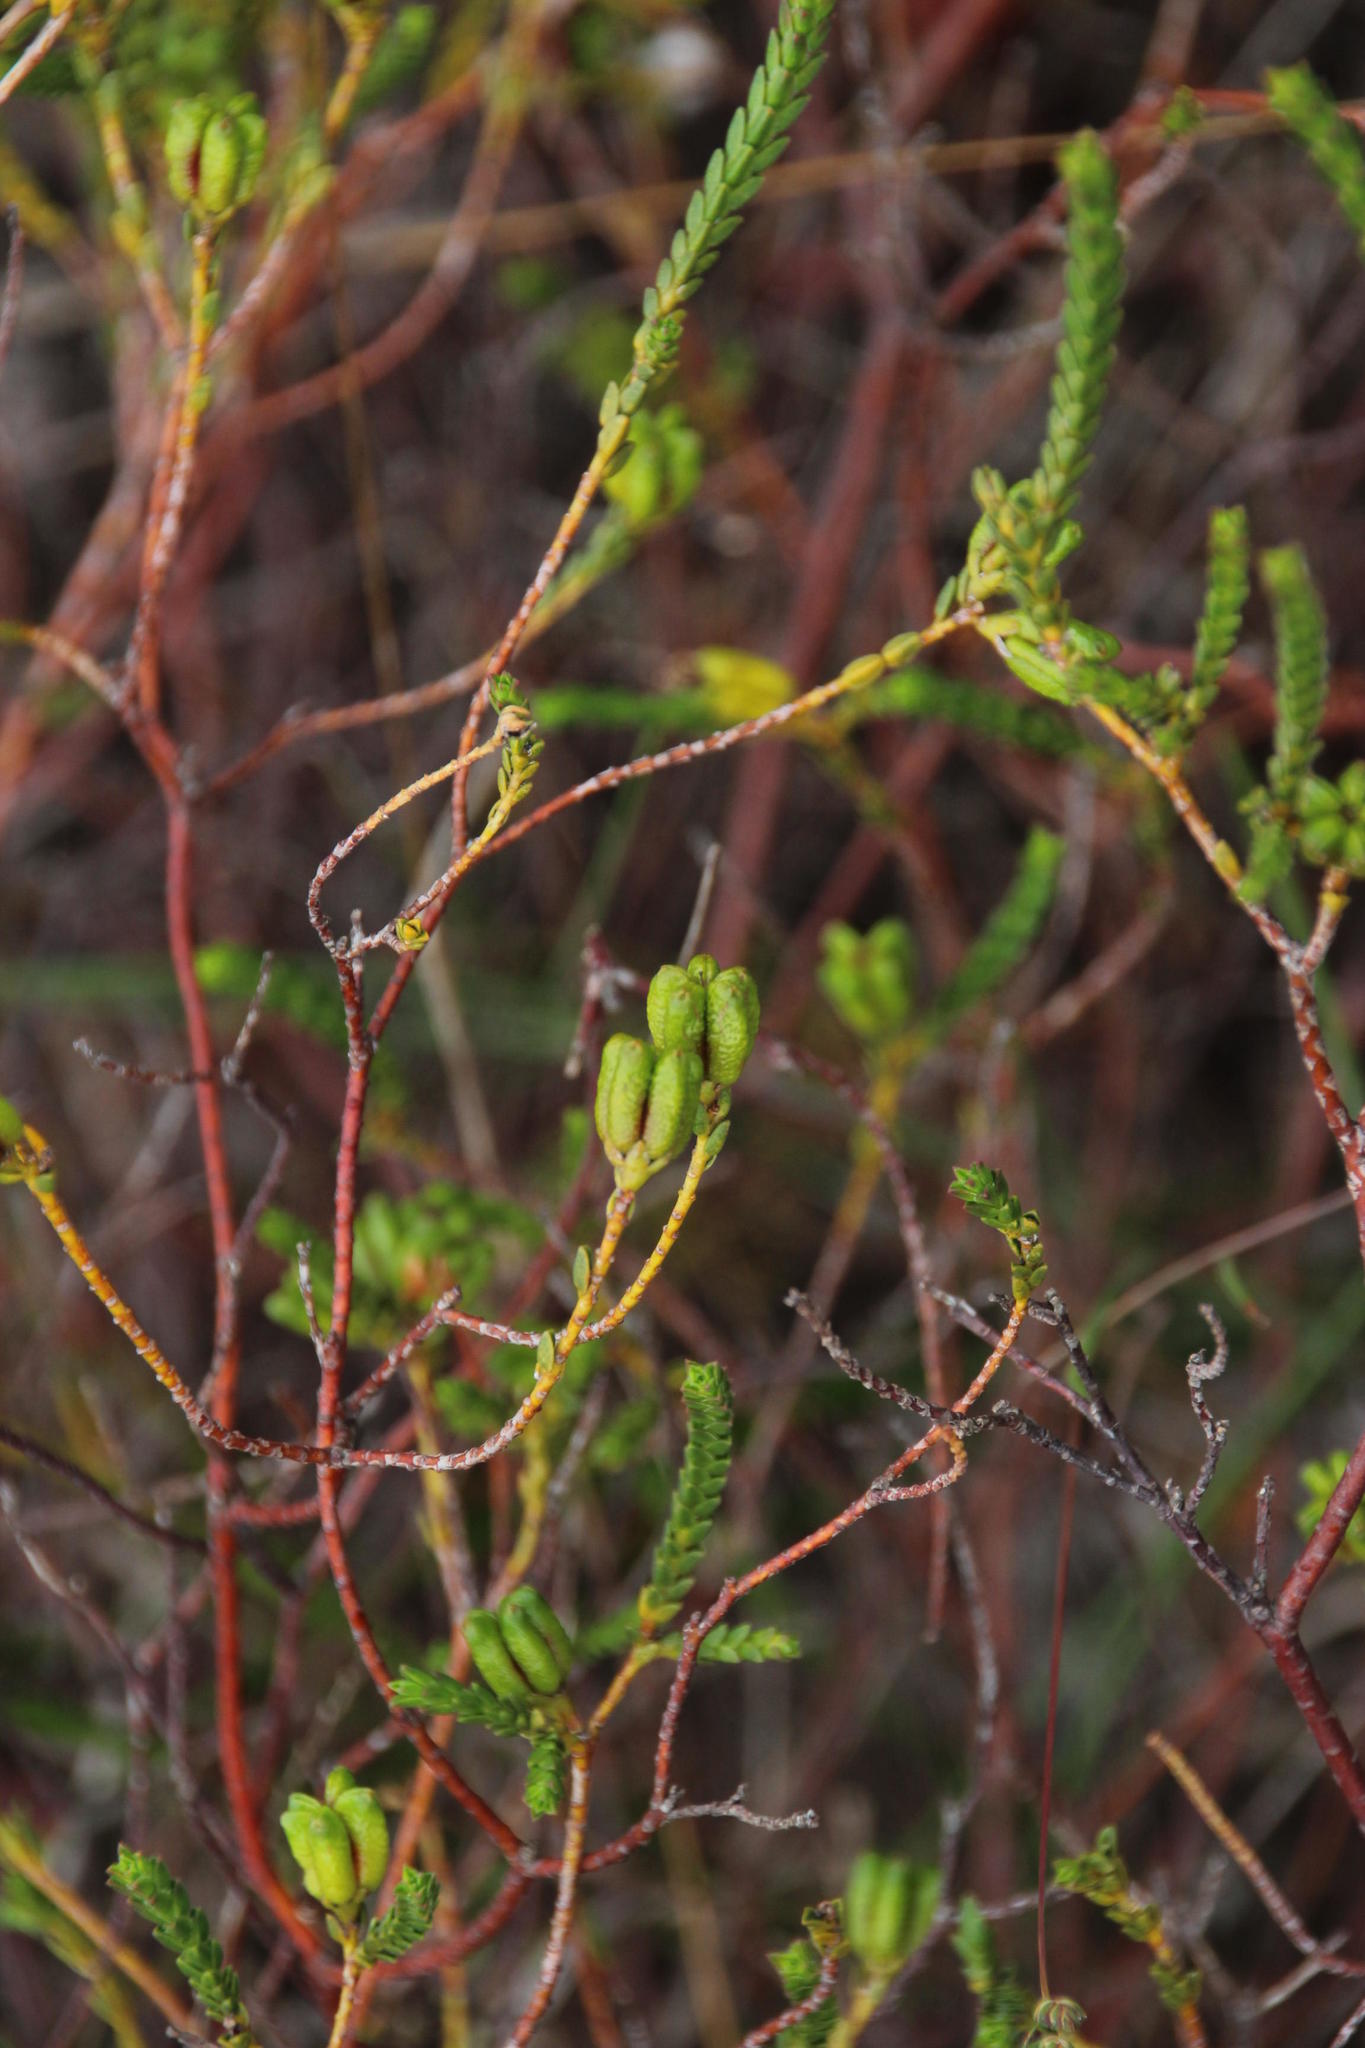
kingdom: Plantae
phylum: Tracheophyta
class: Magnoliopsida
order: Sapindales
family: Rutaceae
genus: Diosma
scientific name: Diosma oppositifolia
